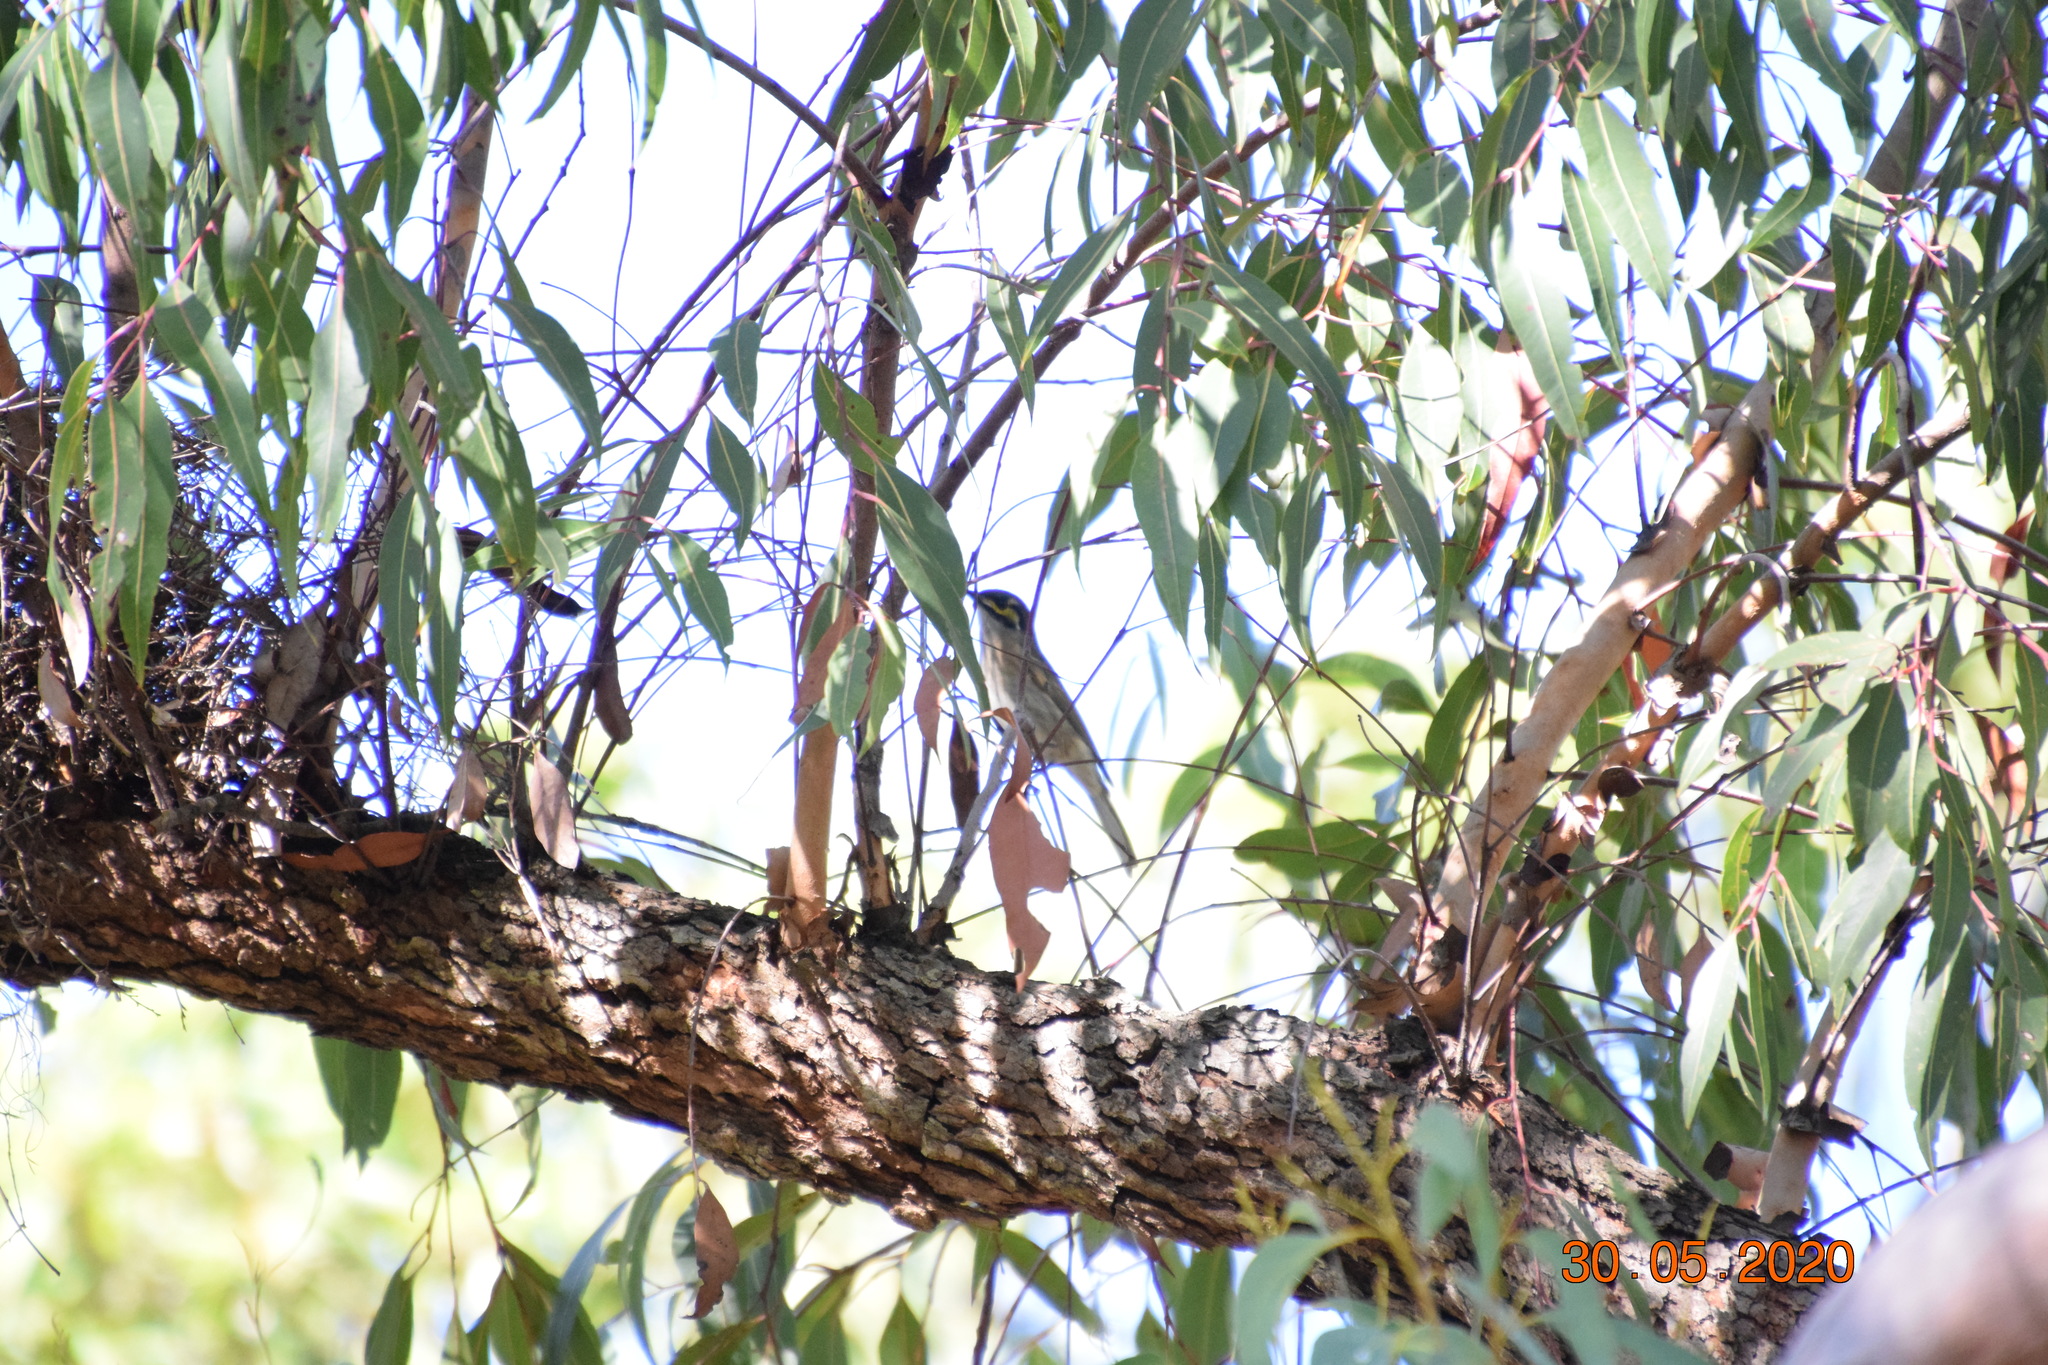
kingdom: Animalia
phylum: Chordata
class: Aves
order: Passeriformes
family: Meliphagidae
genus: Caligavis
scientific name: Caligavis chrysops
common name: Yellow-faced honeyeater
